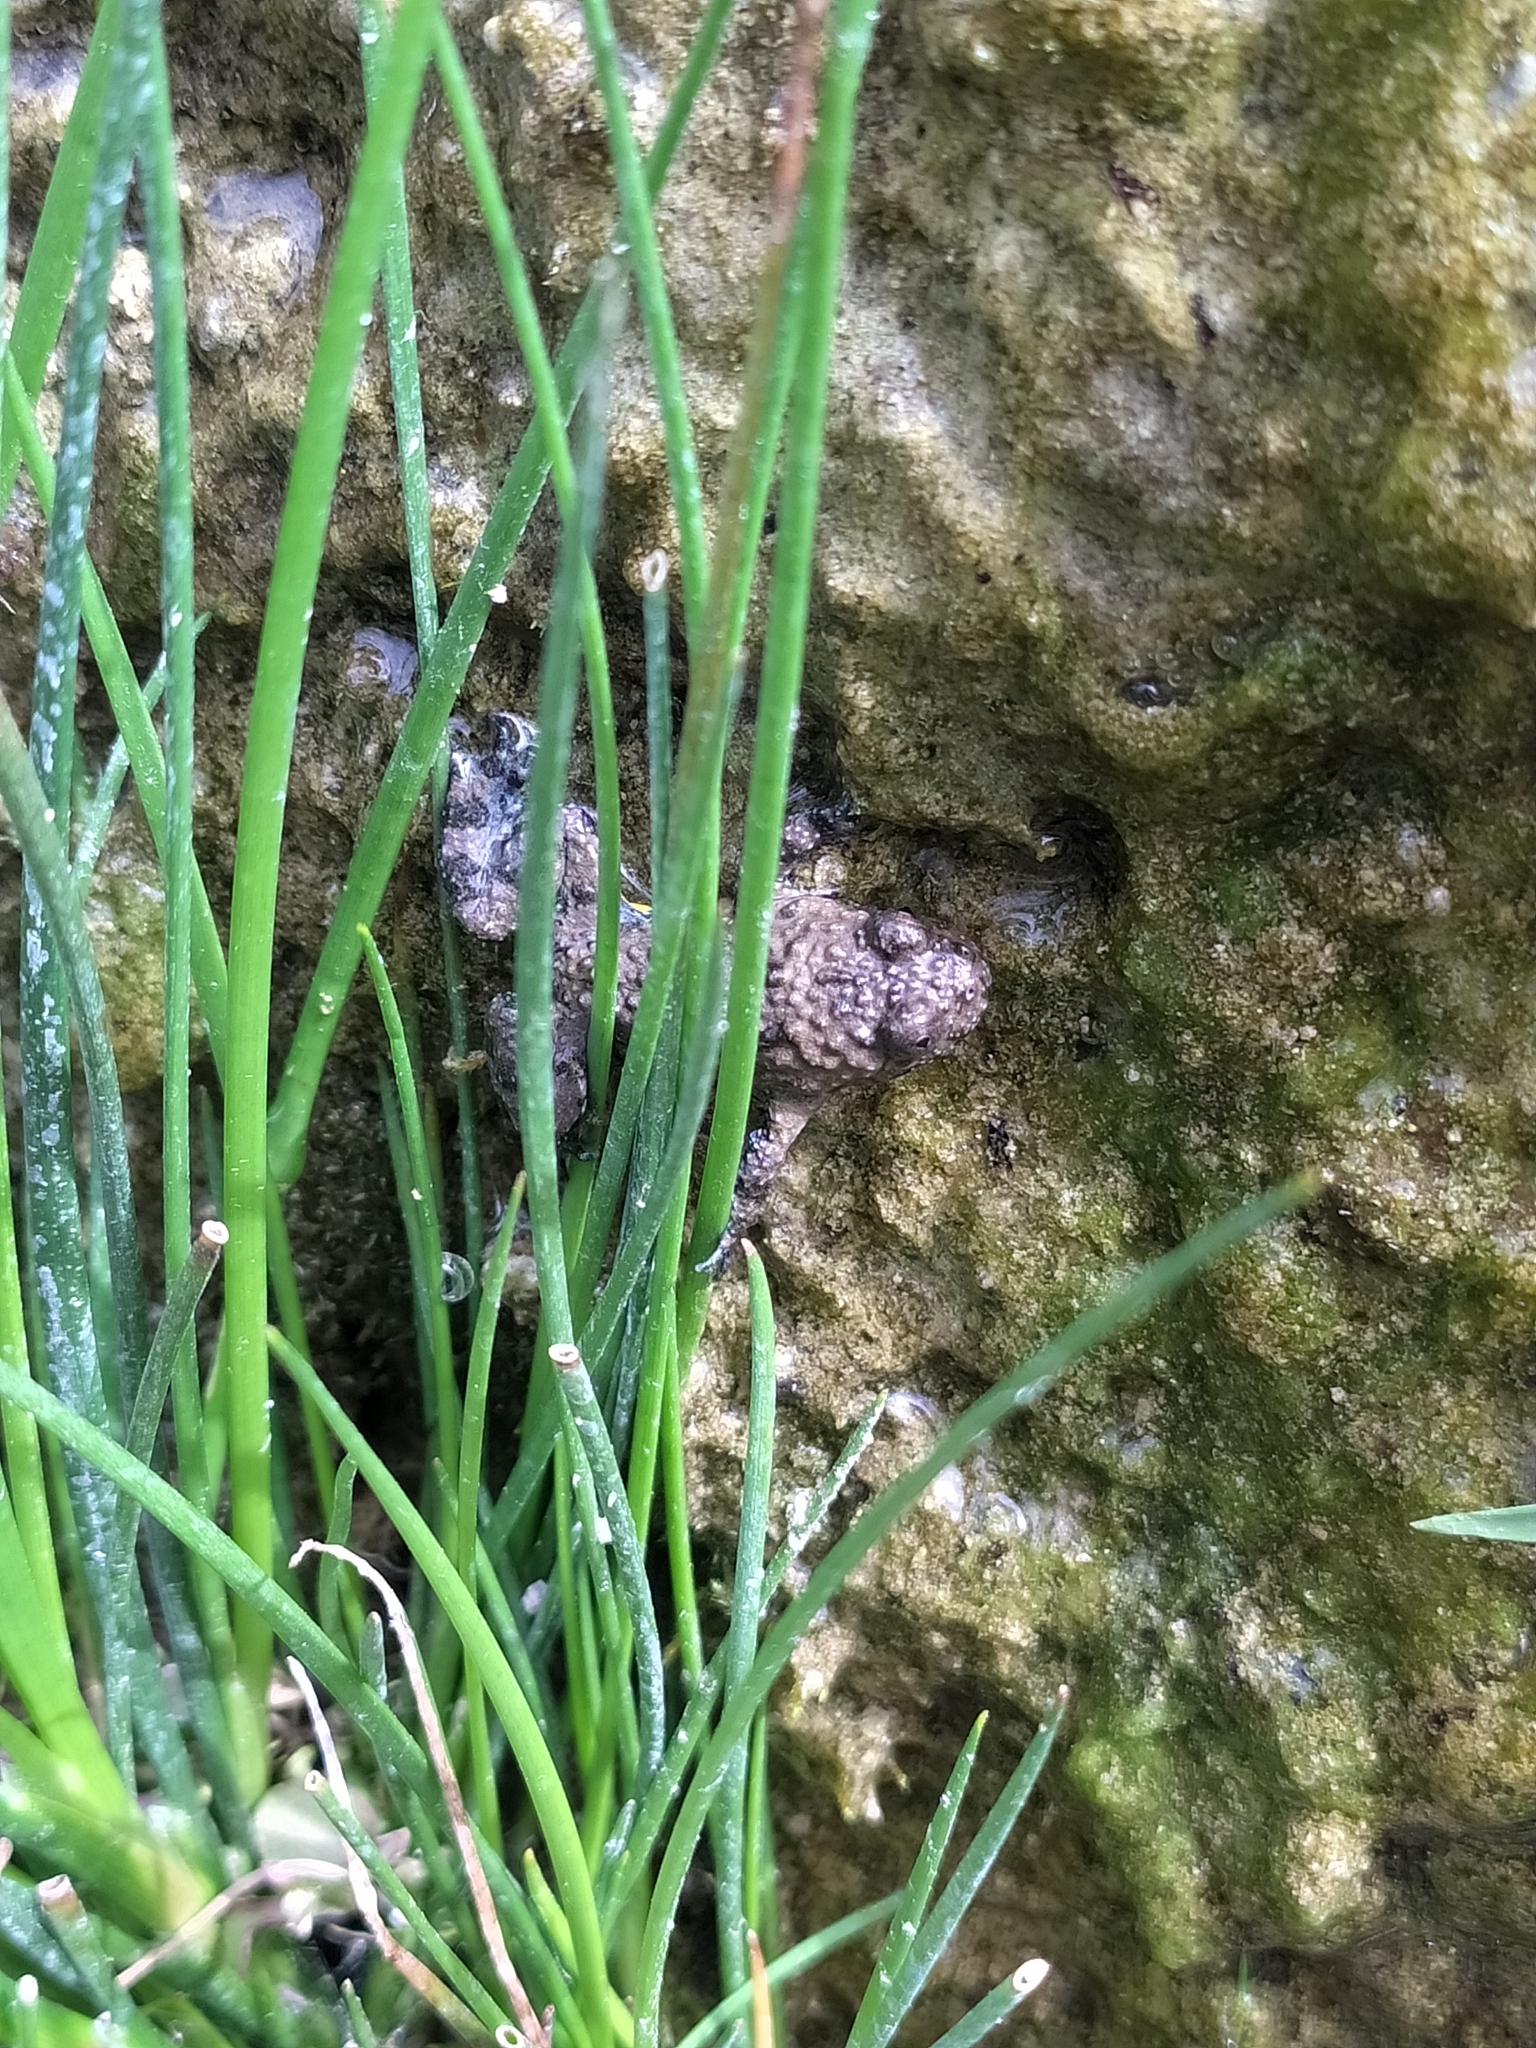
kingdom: Animalia
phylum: Chordata
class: Amphibia
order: Anura
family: Bombinatoridae
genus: Bombina
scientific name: Bombina variegata
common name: Yellow-bellied toad
